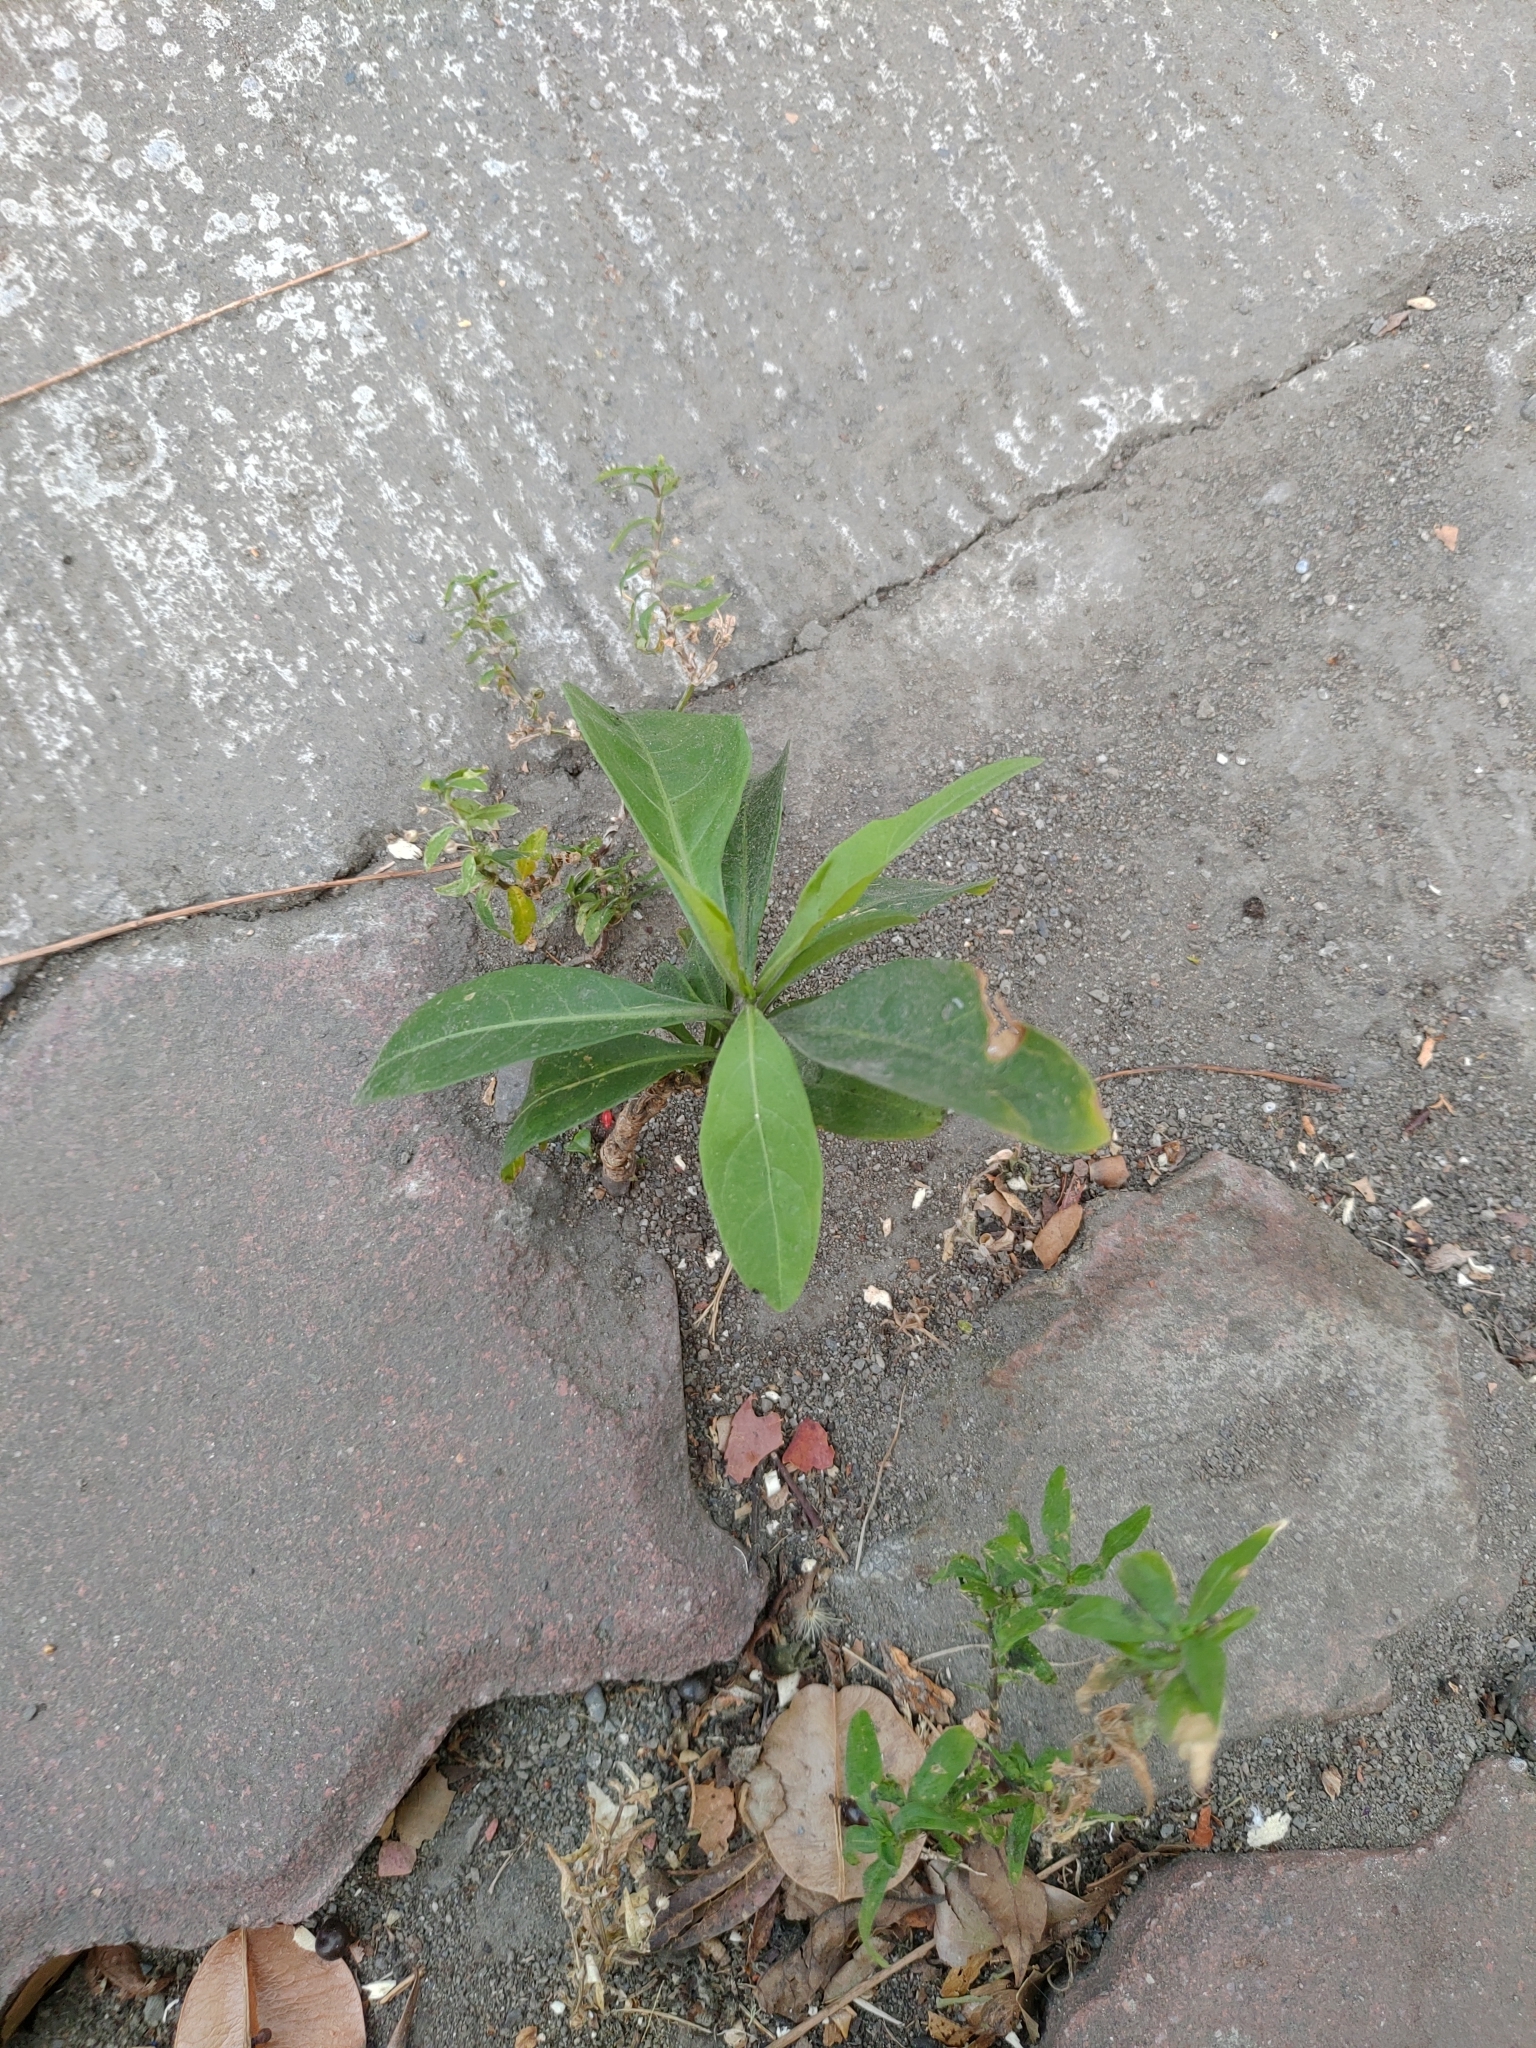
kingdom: Plantae
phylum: Tracheophyta
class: Magnoliopsida
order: Solanales
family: Solanaceae
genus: Solanum
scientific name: Solanum diphyllum
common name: Twoleaf nightshade
